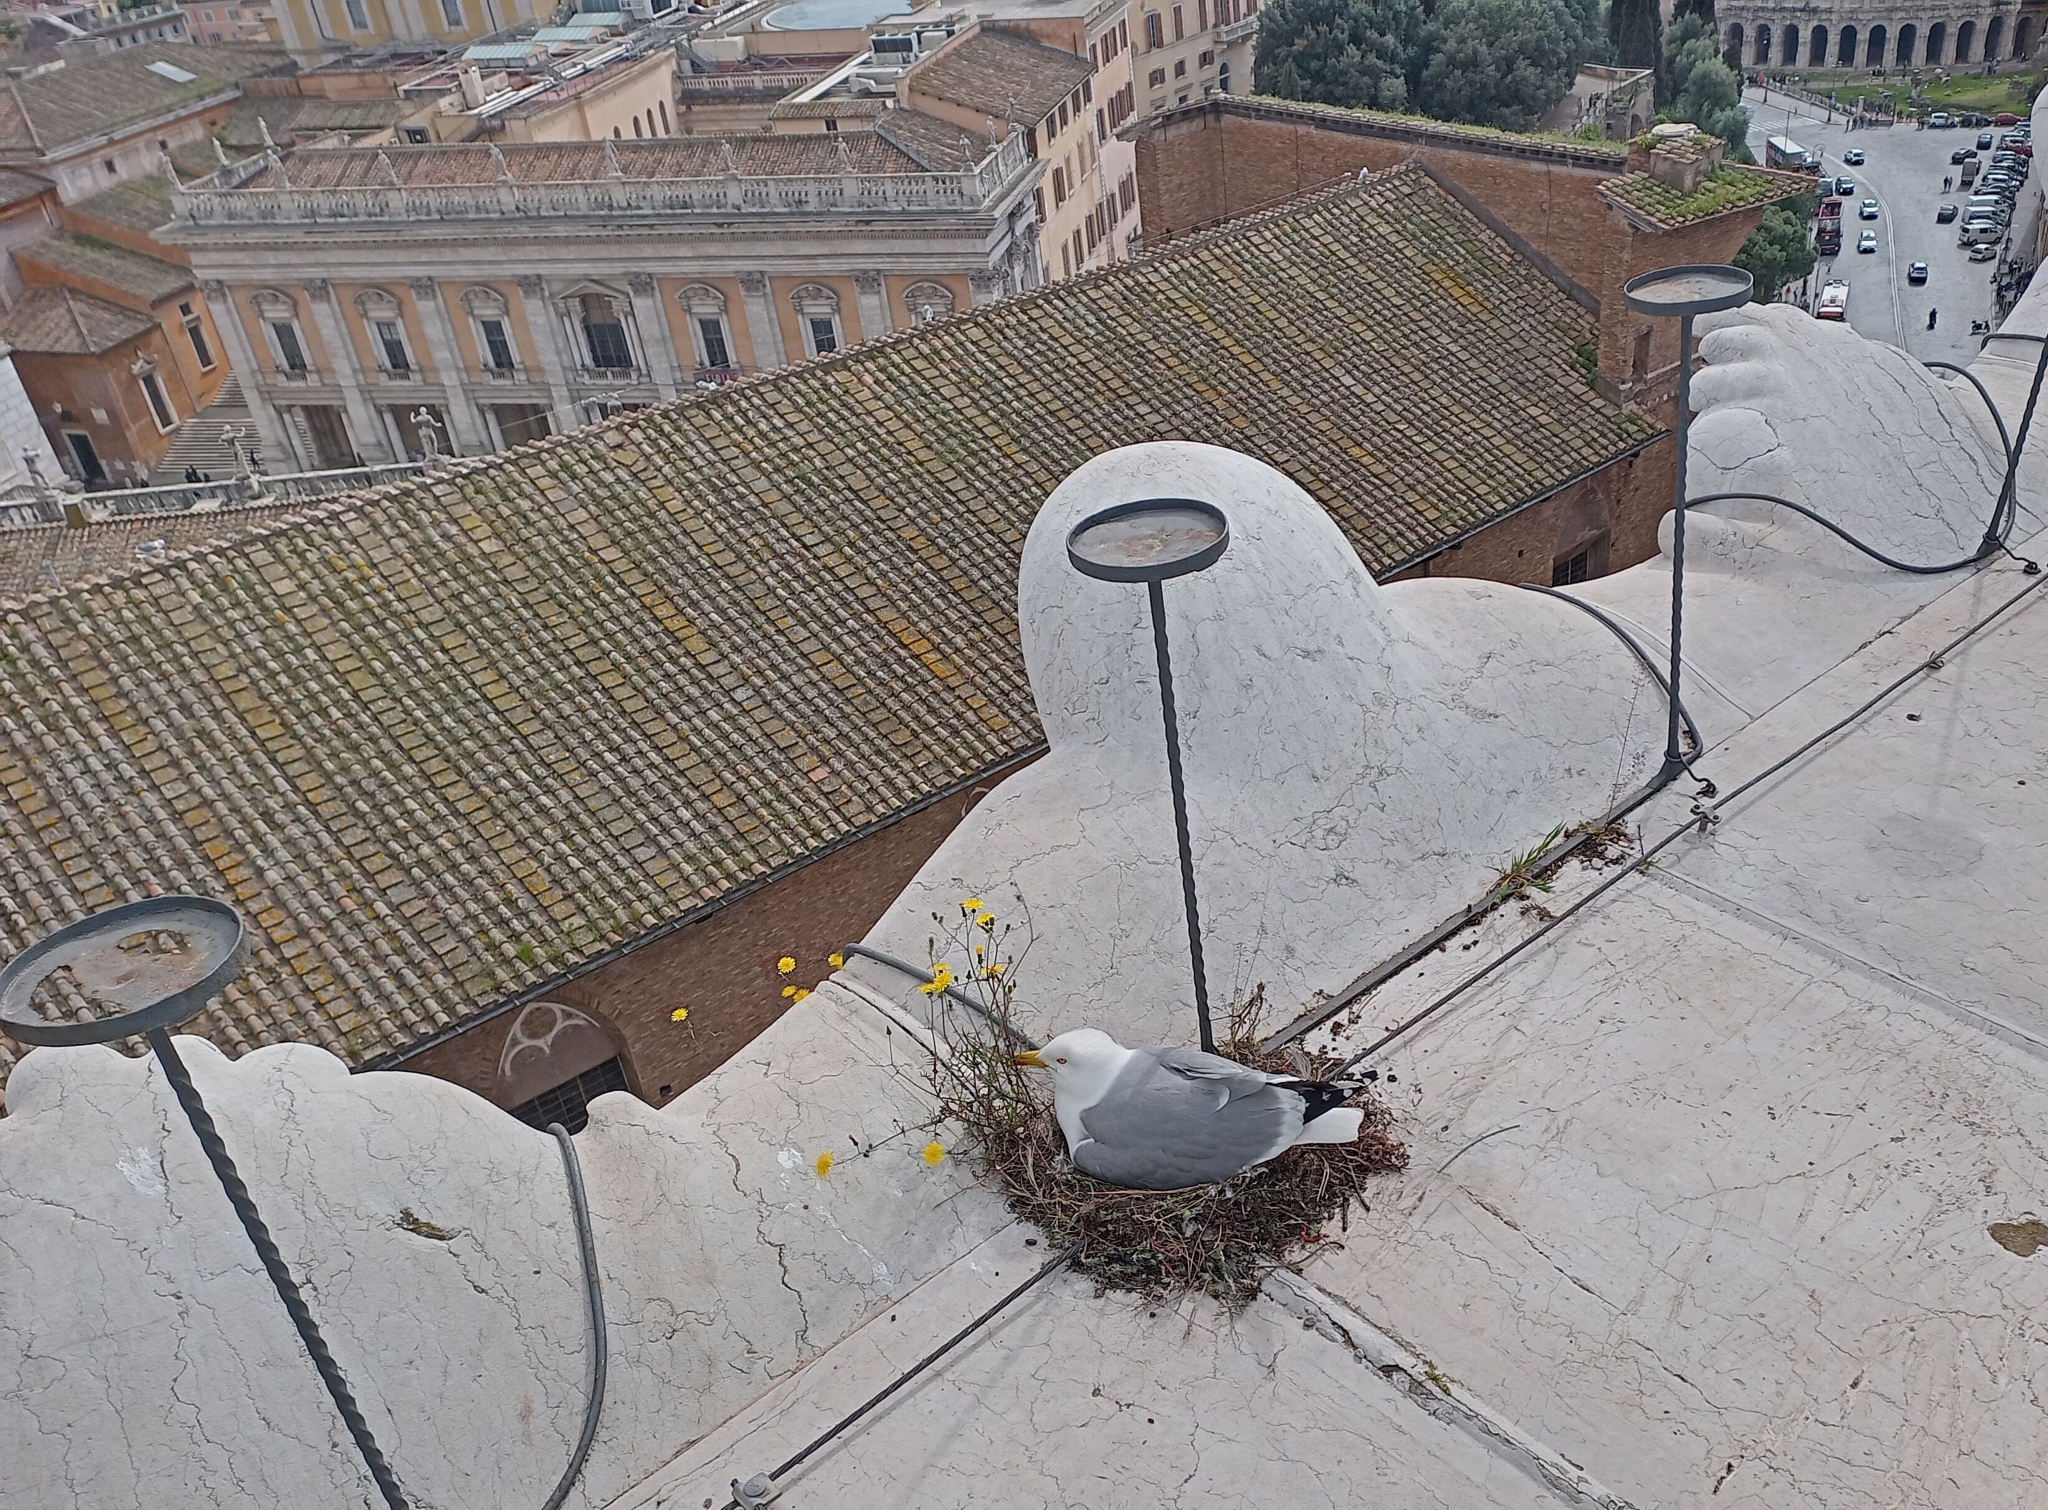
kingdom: Animalia
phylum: Chordata
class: Aves
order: Charadriiformes
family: Laridae
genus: Larus
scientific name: Larus michahellis
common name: Yellow-legged gull
